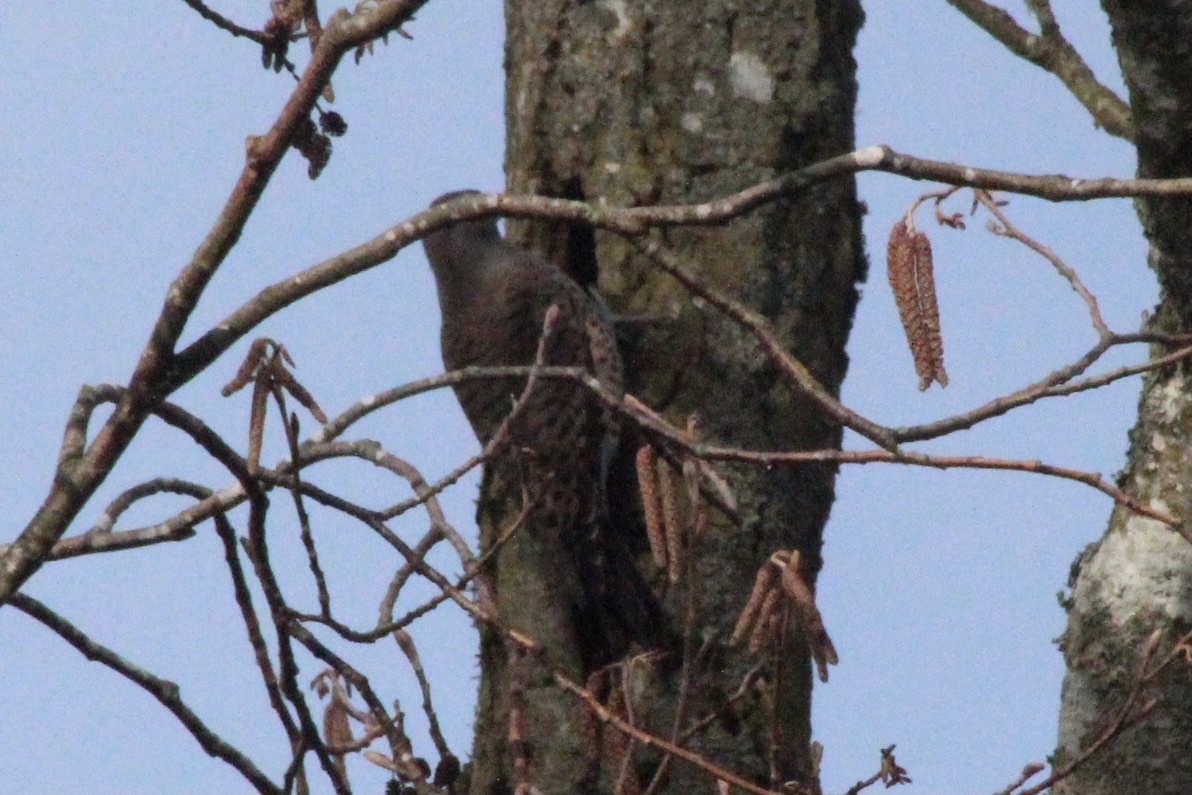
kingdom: Animalia
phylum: Chordata
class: Aves
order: Piciformes
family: Picidae
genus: Colaptes
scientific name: Colaptes auratus
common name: Northern flicker
